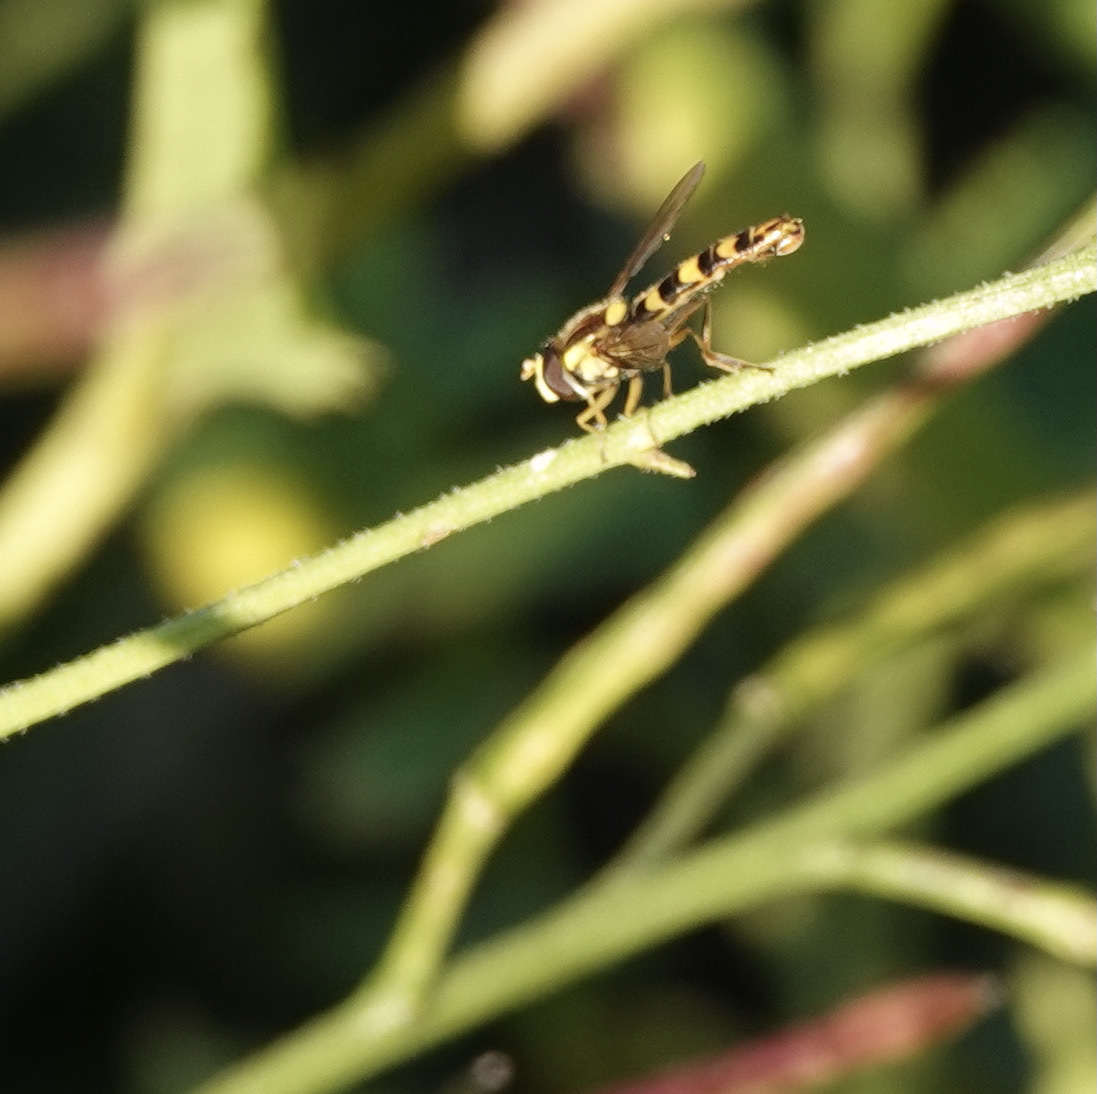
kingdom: Animalia
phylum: Arthropoda
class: Insecta
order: Diptera
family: Syrphidae
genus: Sphaerophoria
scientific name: Sphaerophoria scripta
